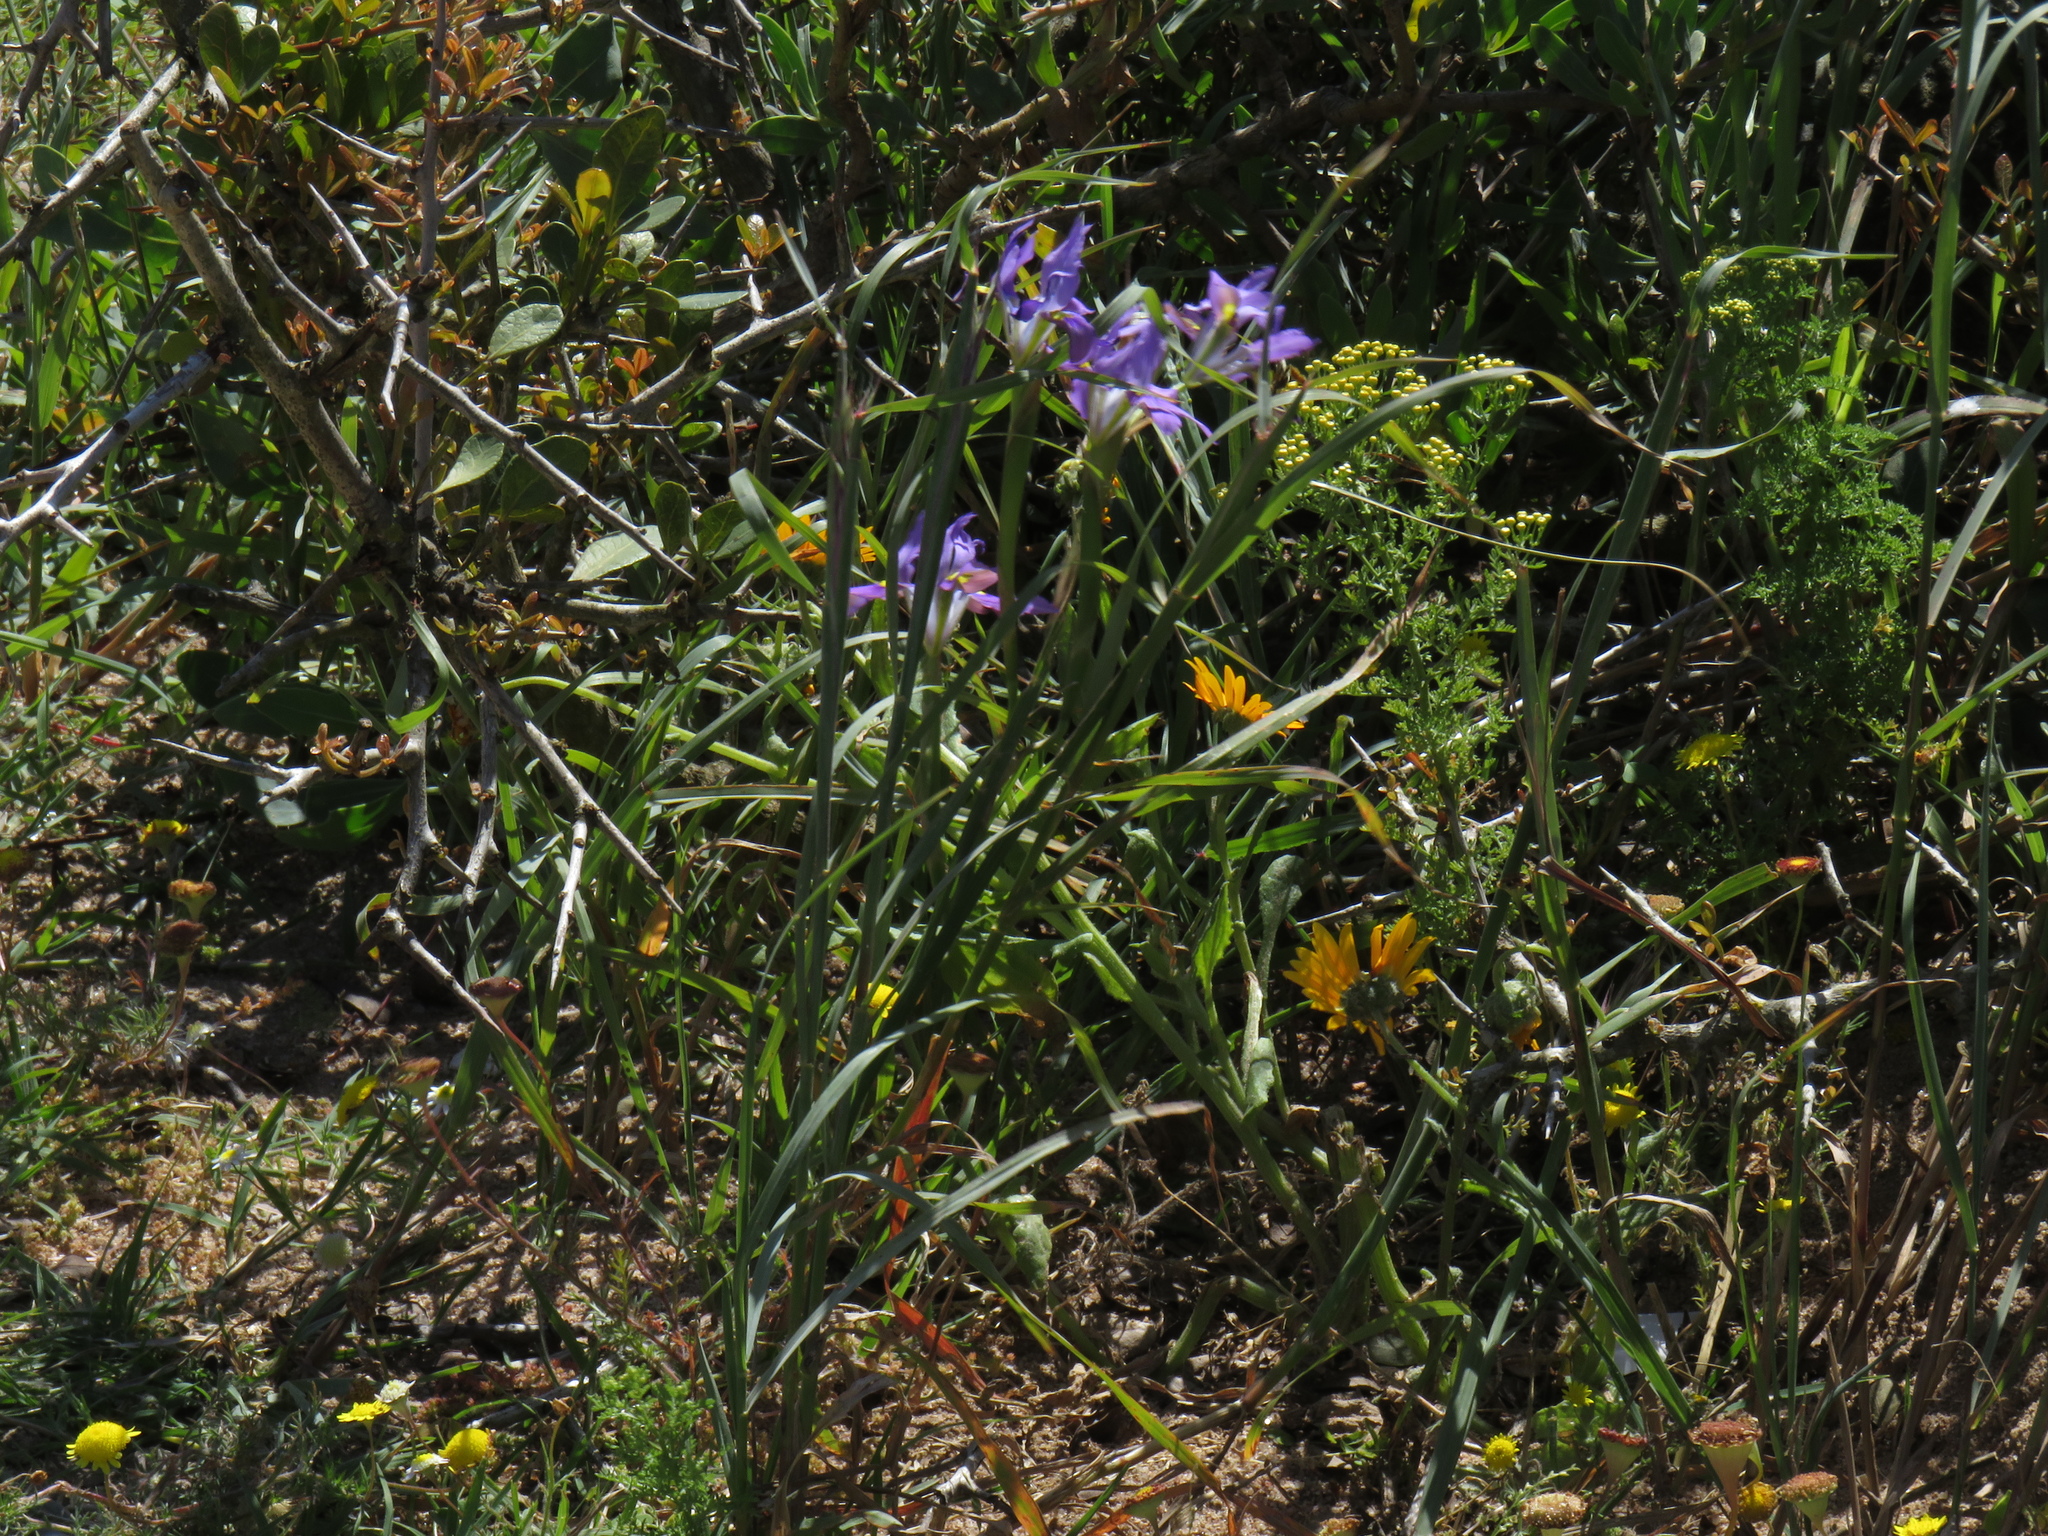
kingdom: Plantae
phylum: Tracheophyta
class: Liliopsida
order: Asparagales
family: Iridaceae
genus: Moraea
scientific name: Moraea fugax
